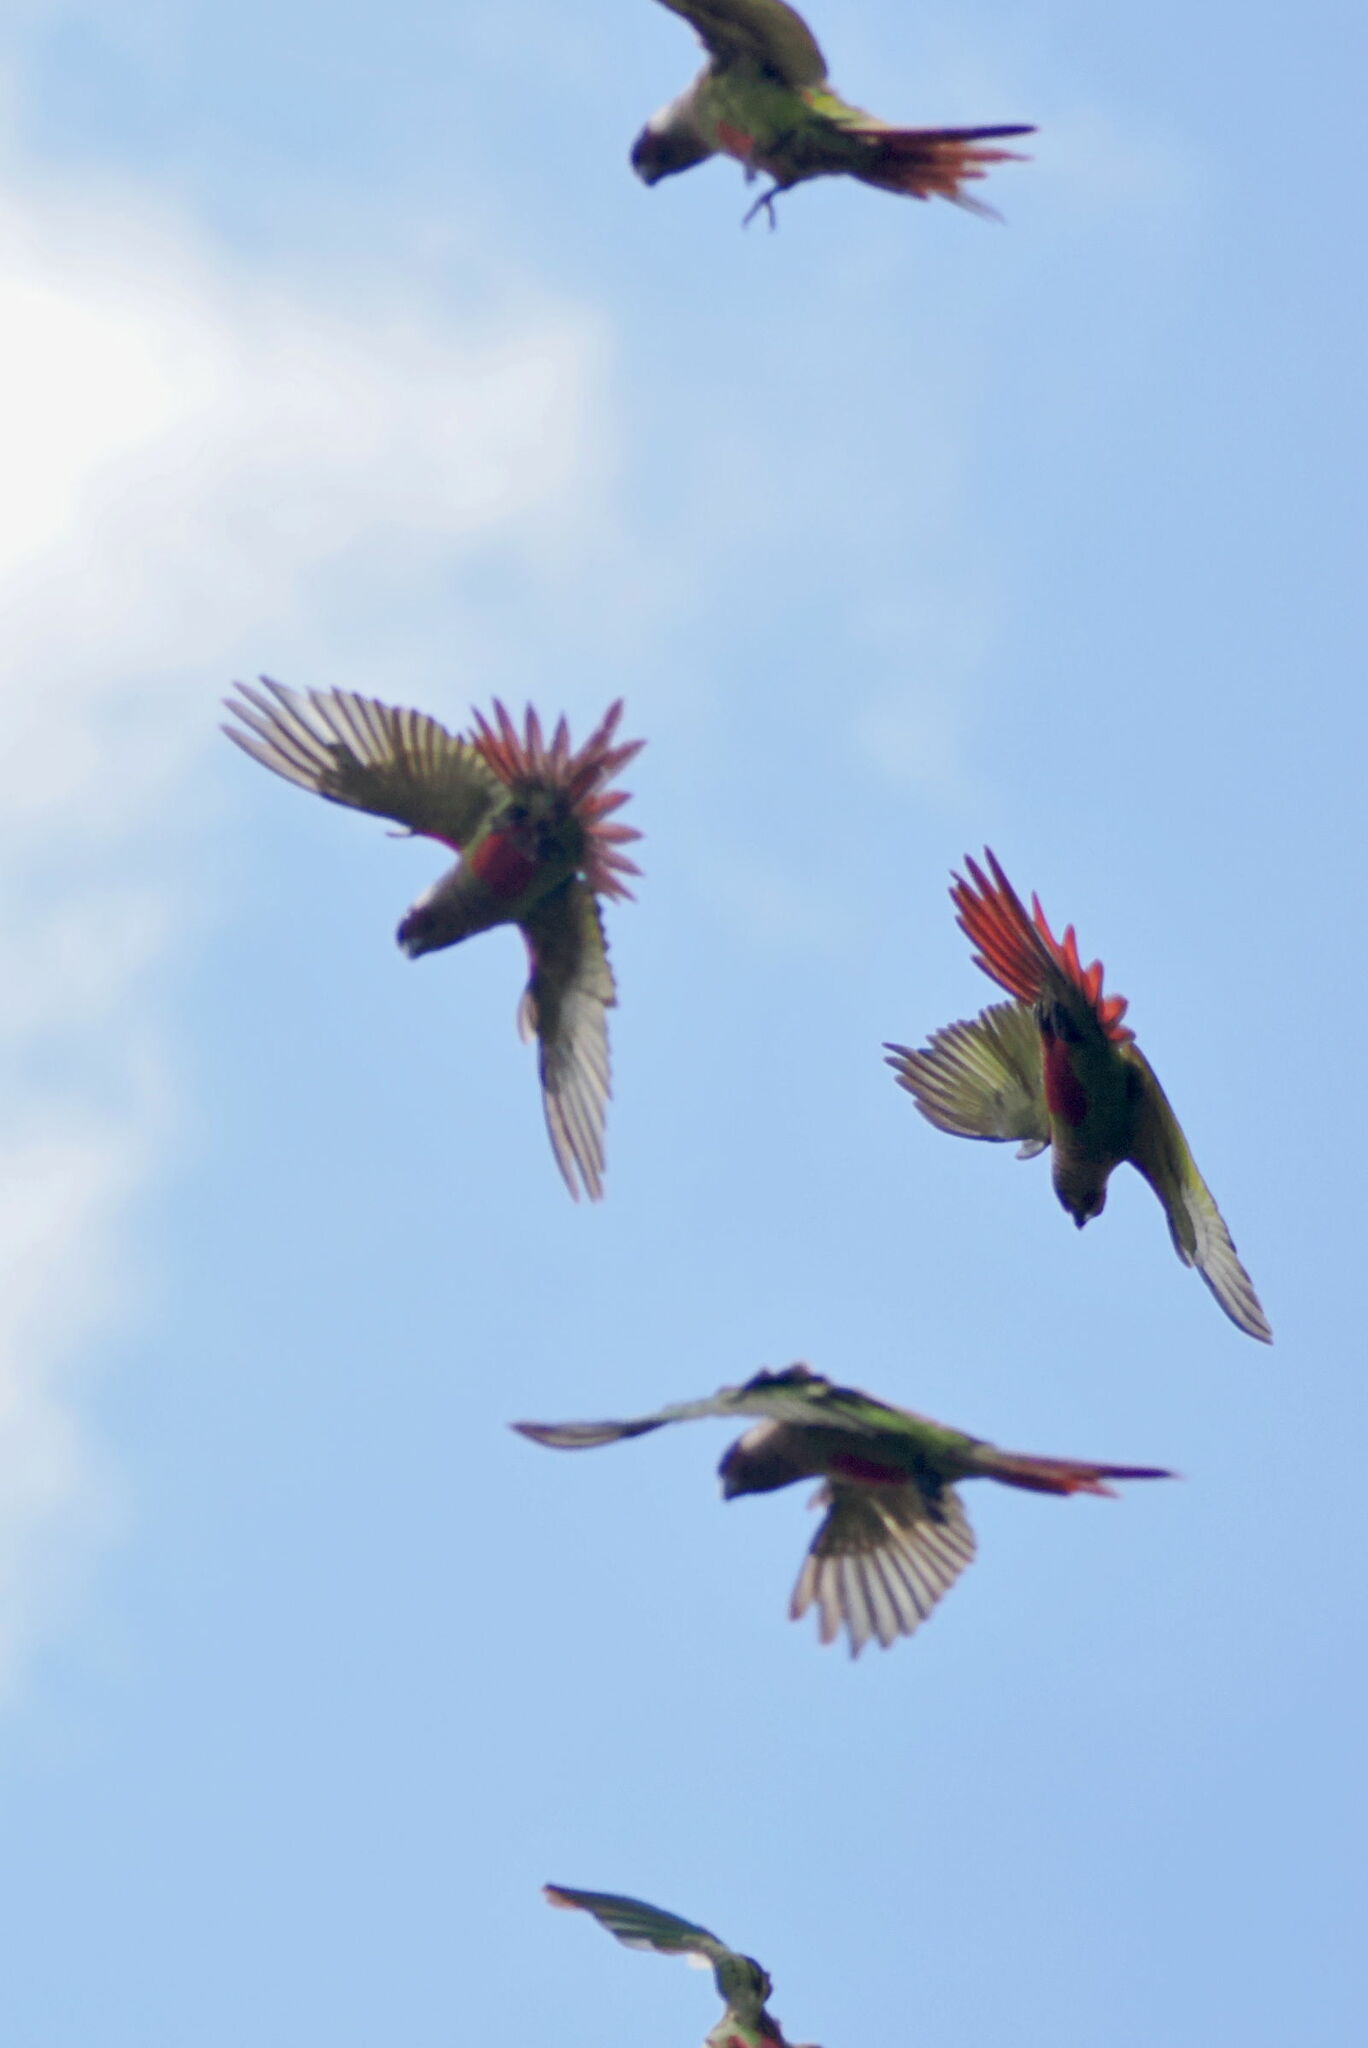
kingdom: Animalia
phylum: Chordata
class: Aves
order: Psittaciformes
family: Psittacidae
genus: Pyrrhura
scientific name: Pyrrhura griseipectus
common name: Gray-breasted parakeet
